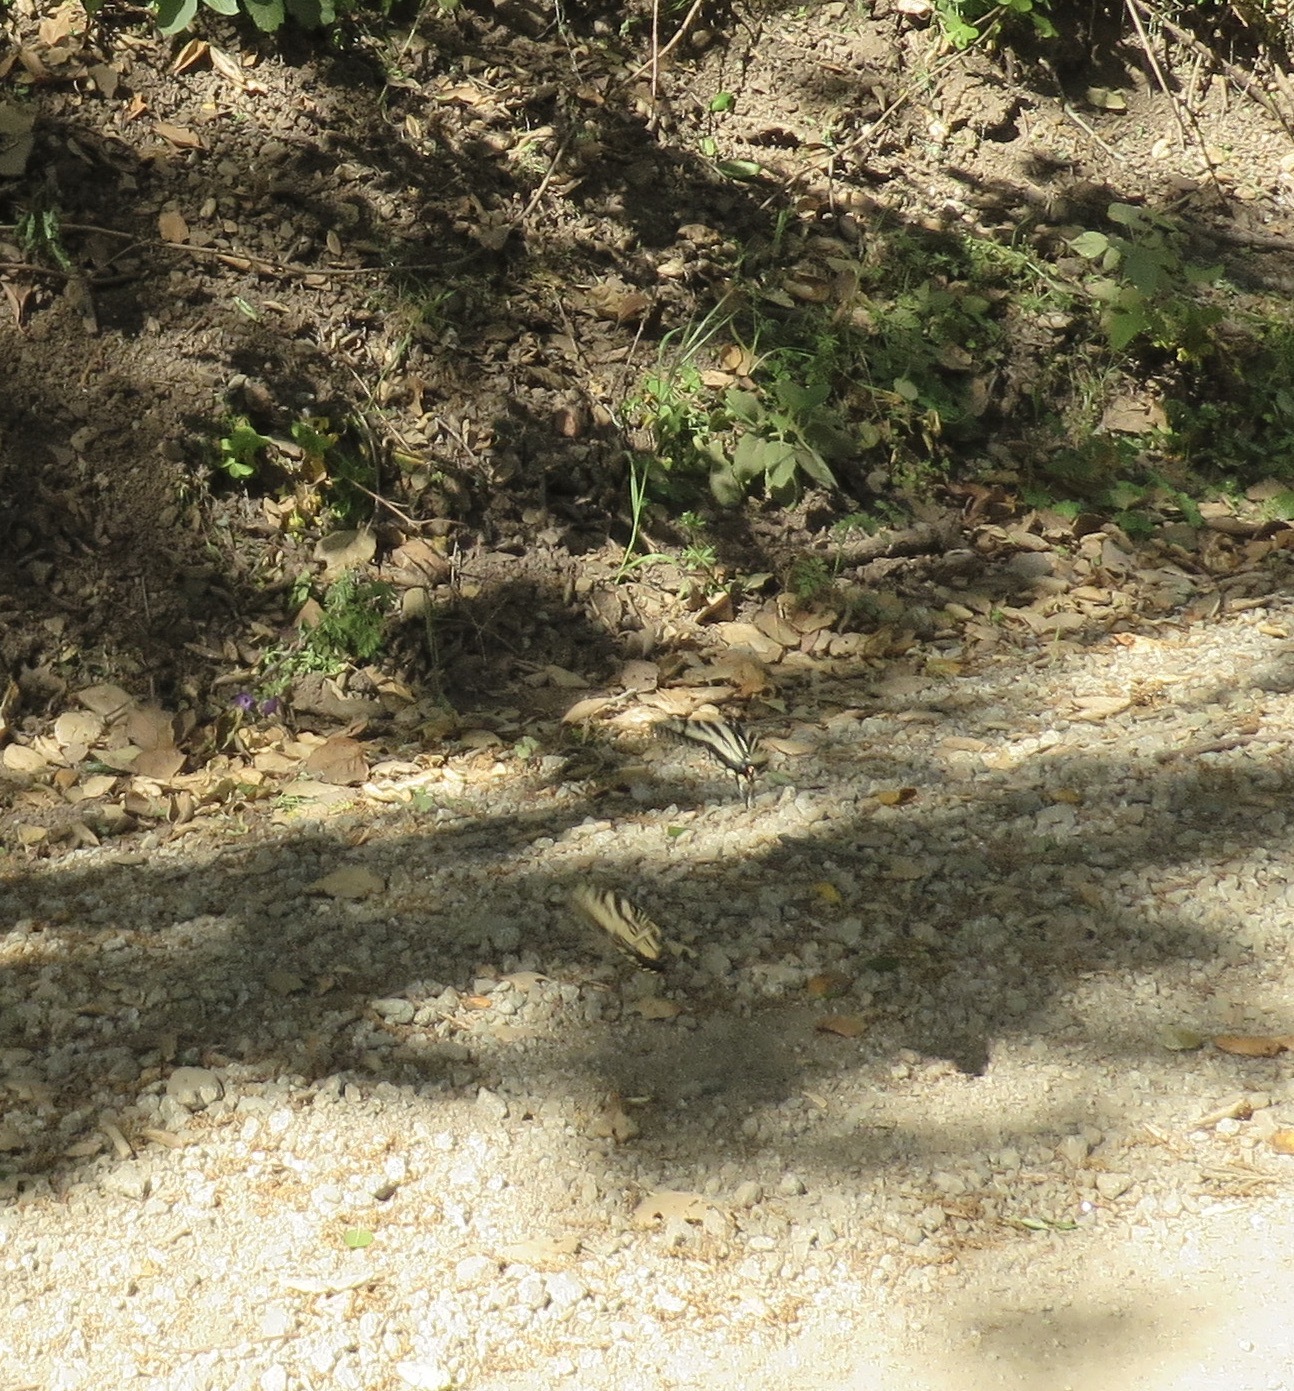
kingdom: Animalia
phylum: Arthropoda
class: Insecta
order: Lepidoptera
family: Papilionidae
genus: Papilio
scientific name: Papilio rutulus
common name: Western tiger swallowtail
